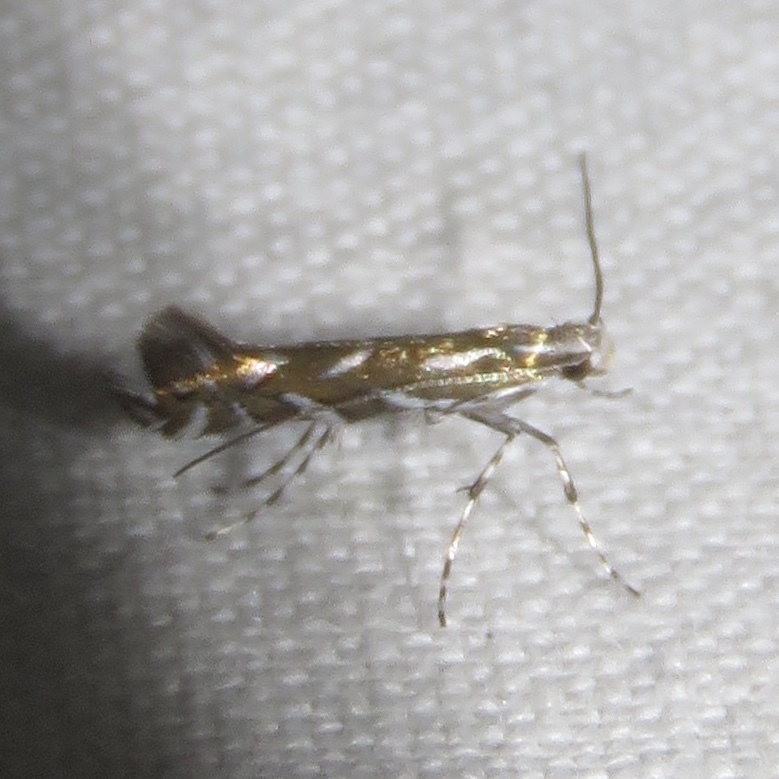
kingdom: Animalia
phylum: Arthropoda
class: Insecta
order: Lepidoptera
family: Gracillariidae
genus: Parectopa
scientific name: Parectopa plantaginisella
